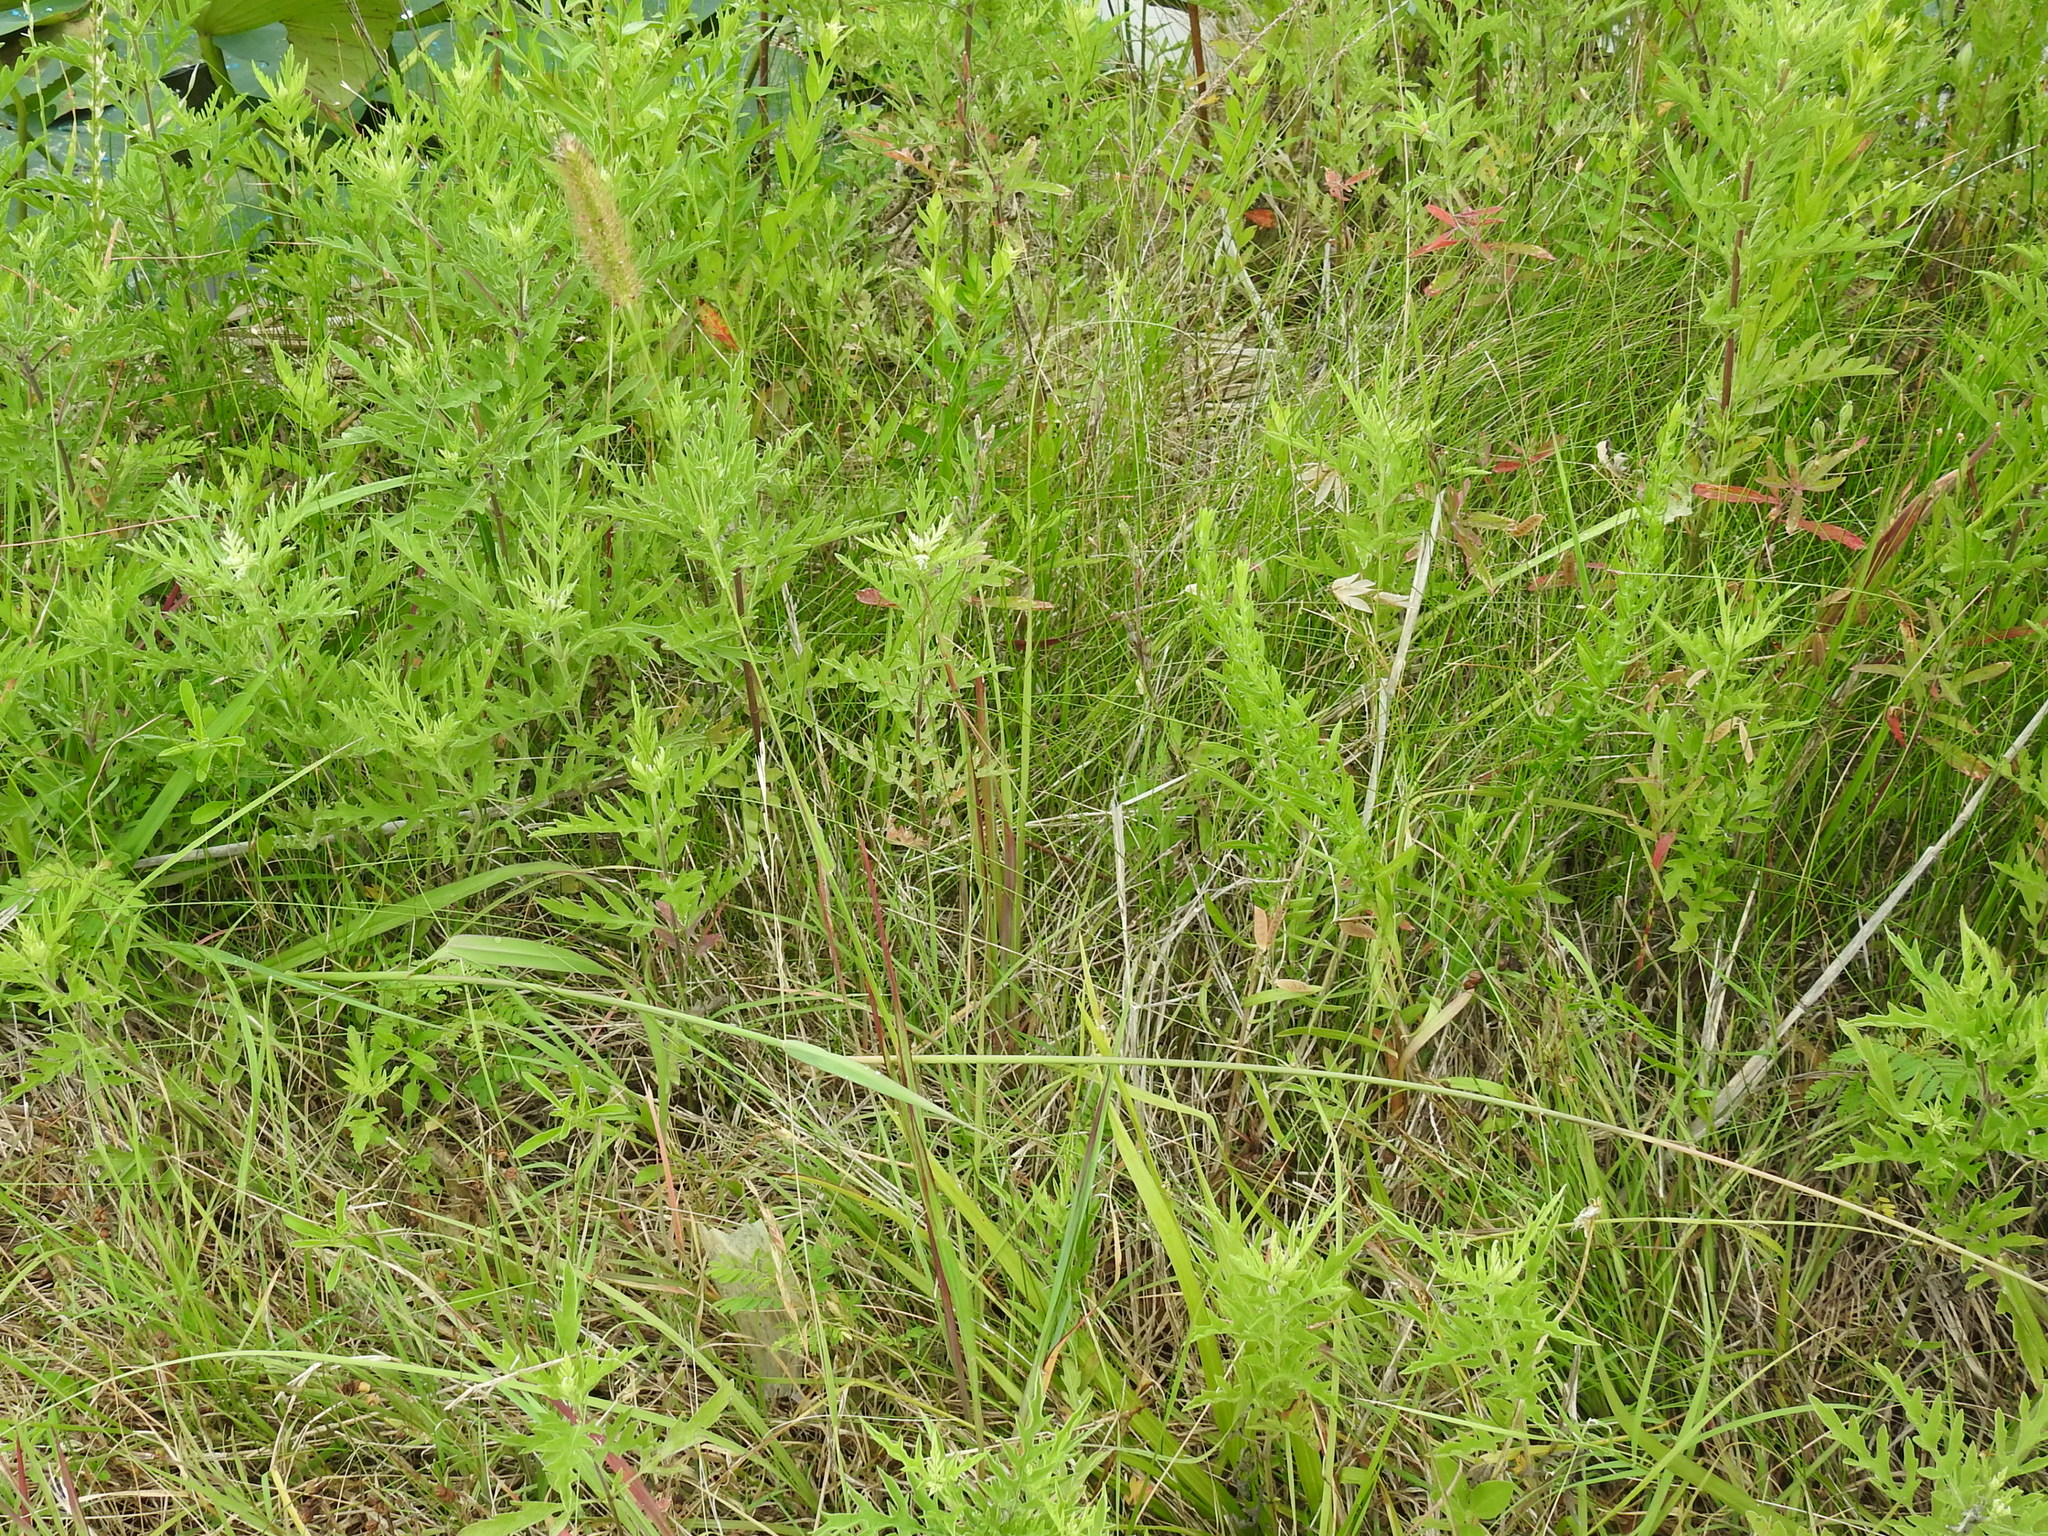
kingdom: Plantae
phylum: Tracheophyta
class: Liliopsida
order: Poales
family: Poaceae
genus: Setaria
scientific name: Setaria parviflora
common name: Knotroot bristle-grass
